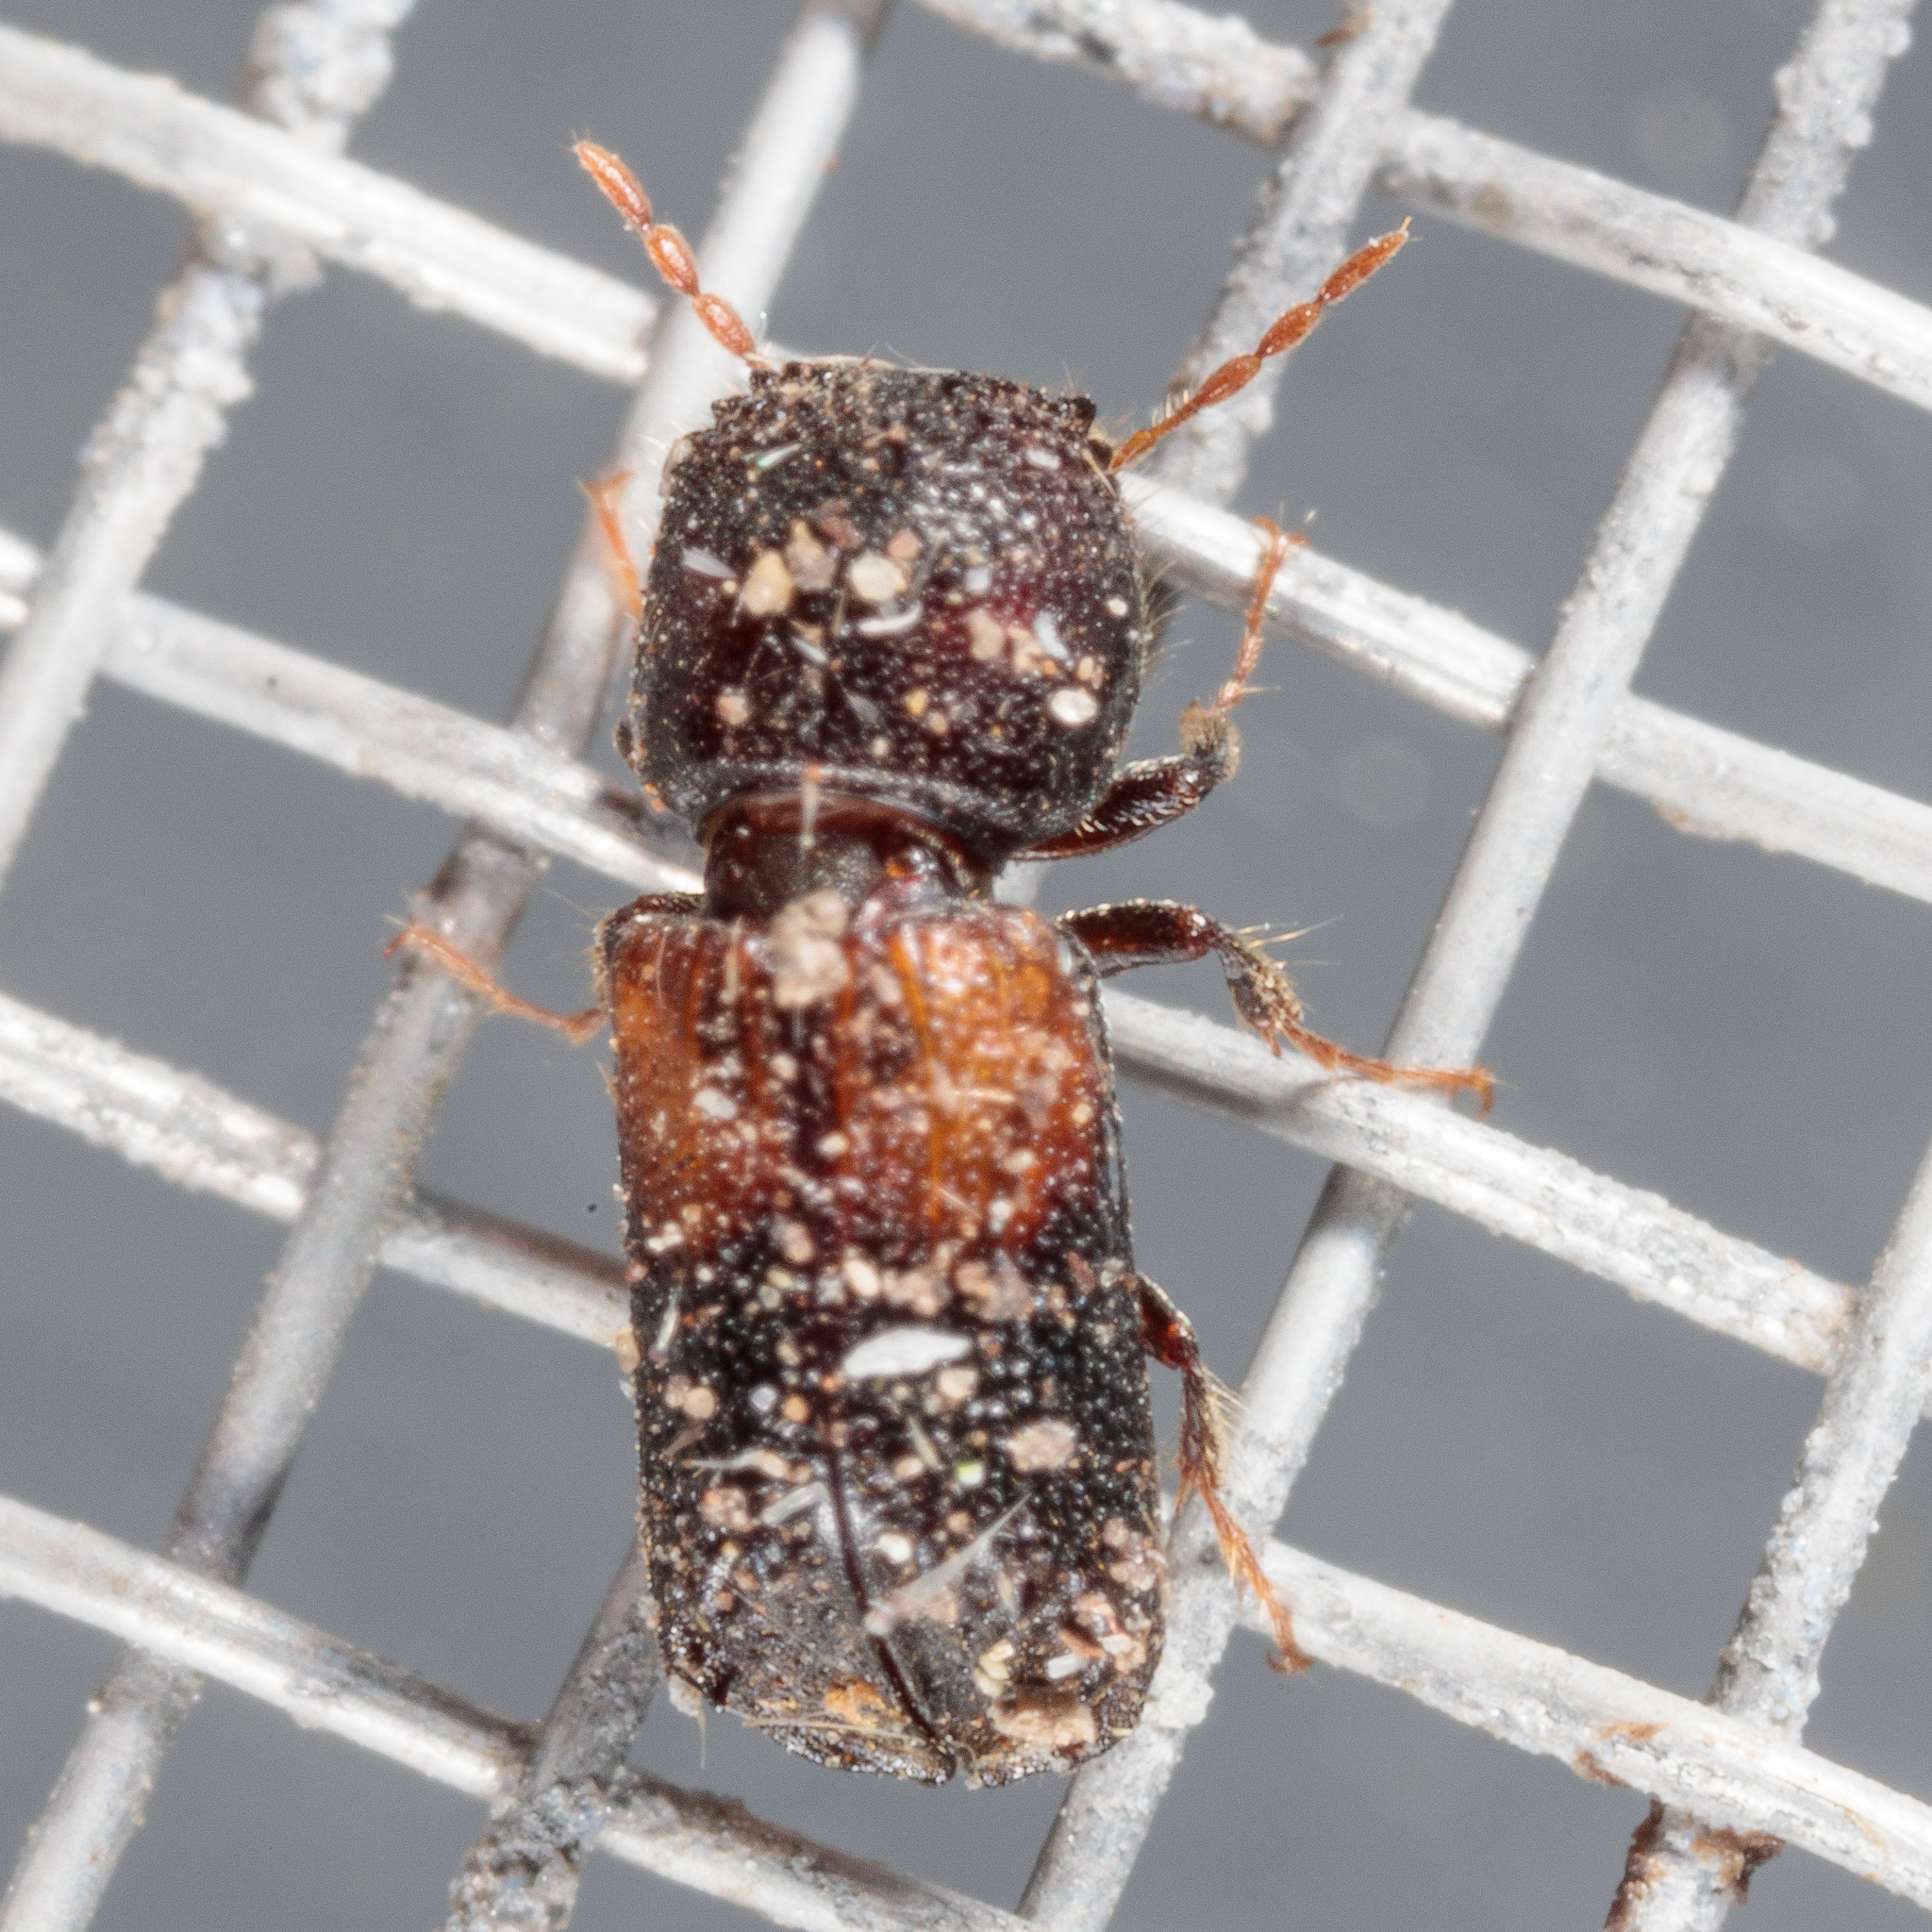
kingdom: Animalia
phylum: Arthropoda
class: Insecta
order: Coleoptera
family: Bostrichidae
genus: Xylobiops
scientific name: Xylobiops basilaris
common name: Red-shouldered bostrichid
